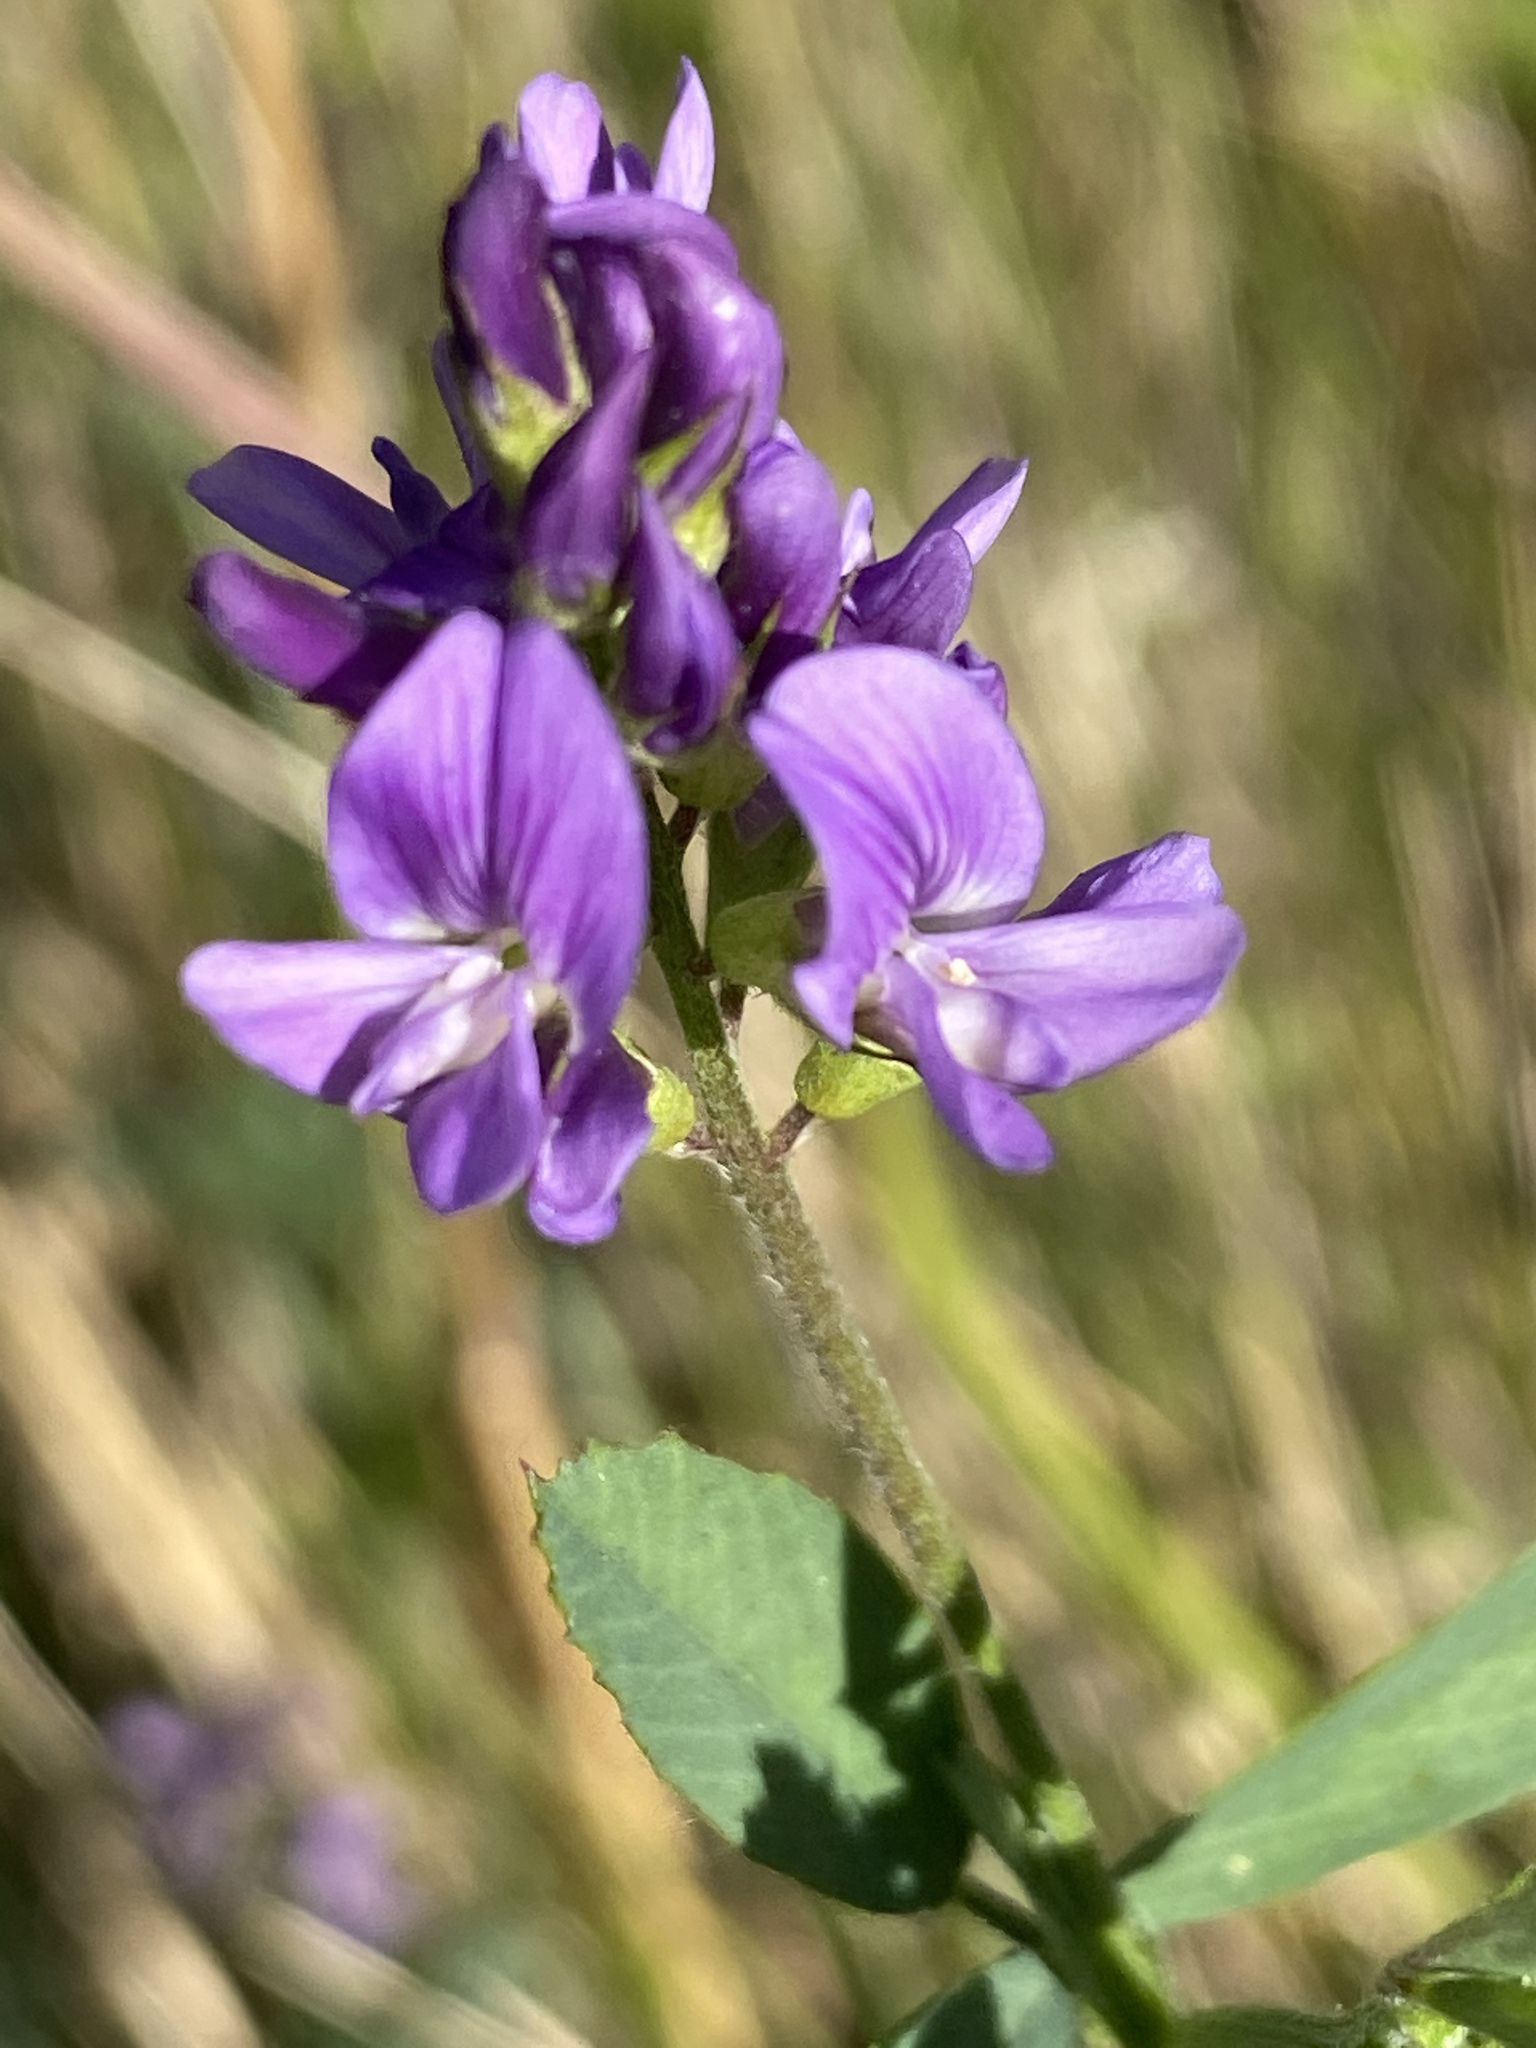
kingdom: Plantae
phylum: Tracheophyta
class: Magnoliopsida
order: Fabales
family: Fabaceae
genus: Medicago
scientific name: Medicago sativa
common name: Alfalfa
